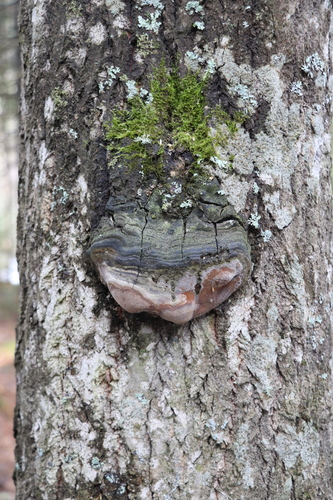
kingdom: Fungi
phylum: Basidiomycota
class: Agaricomycetes
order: Hymenochaetales
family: Hymenochaetaceae
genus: Phellinus
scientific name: Phellinus tremulae
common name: Aspen bracket
